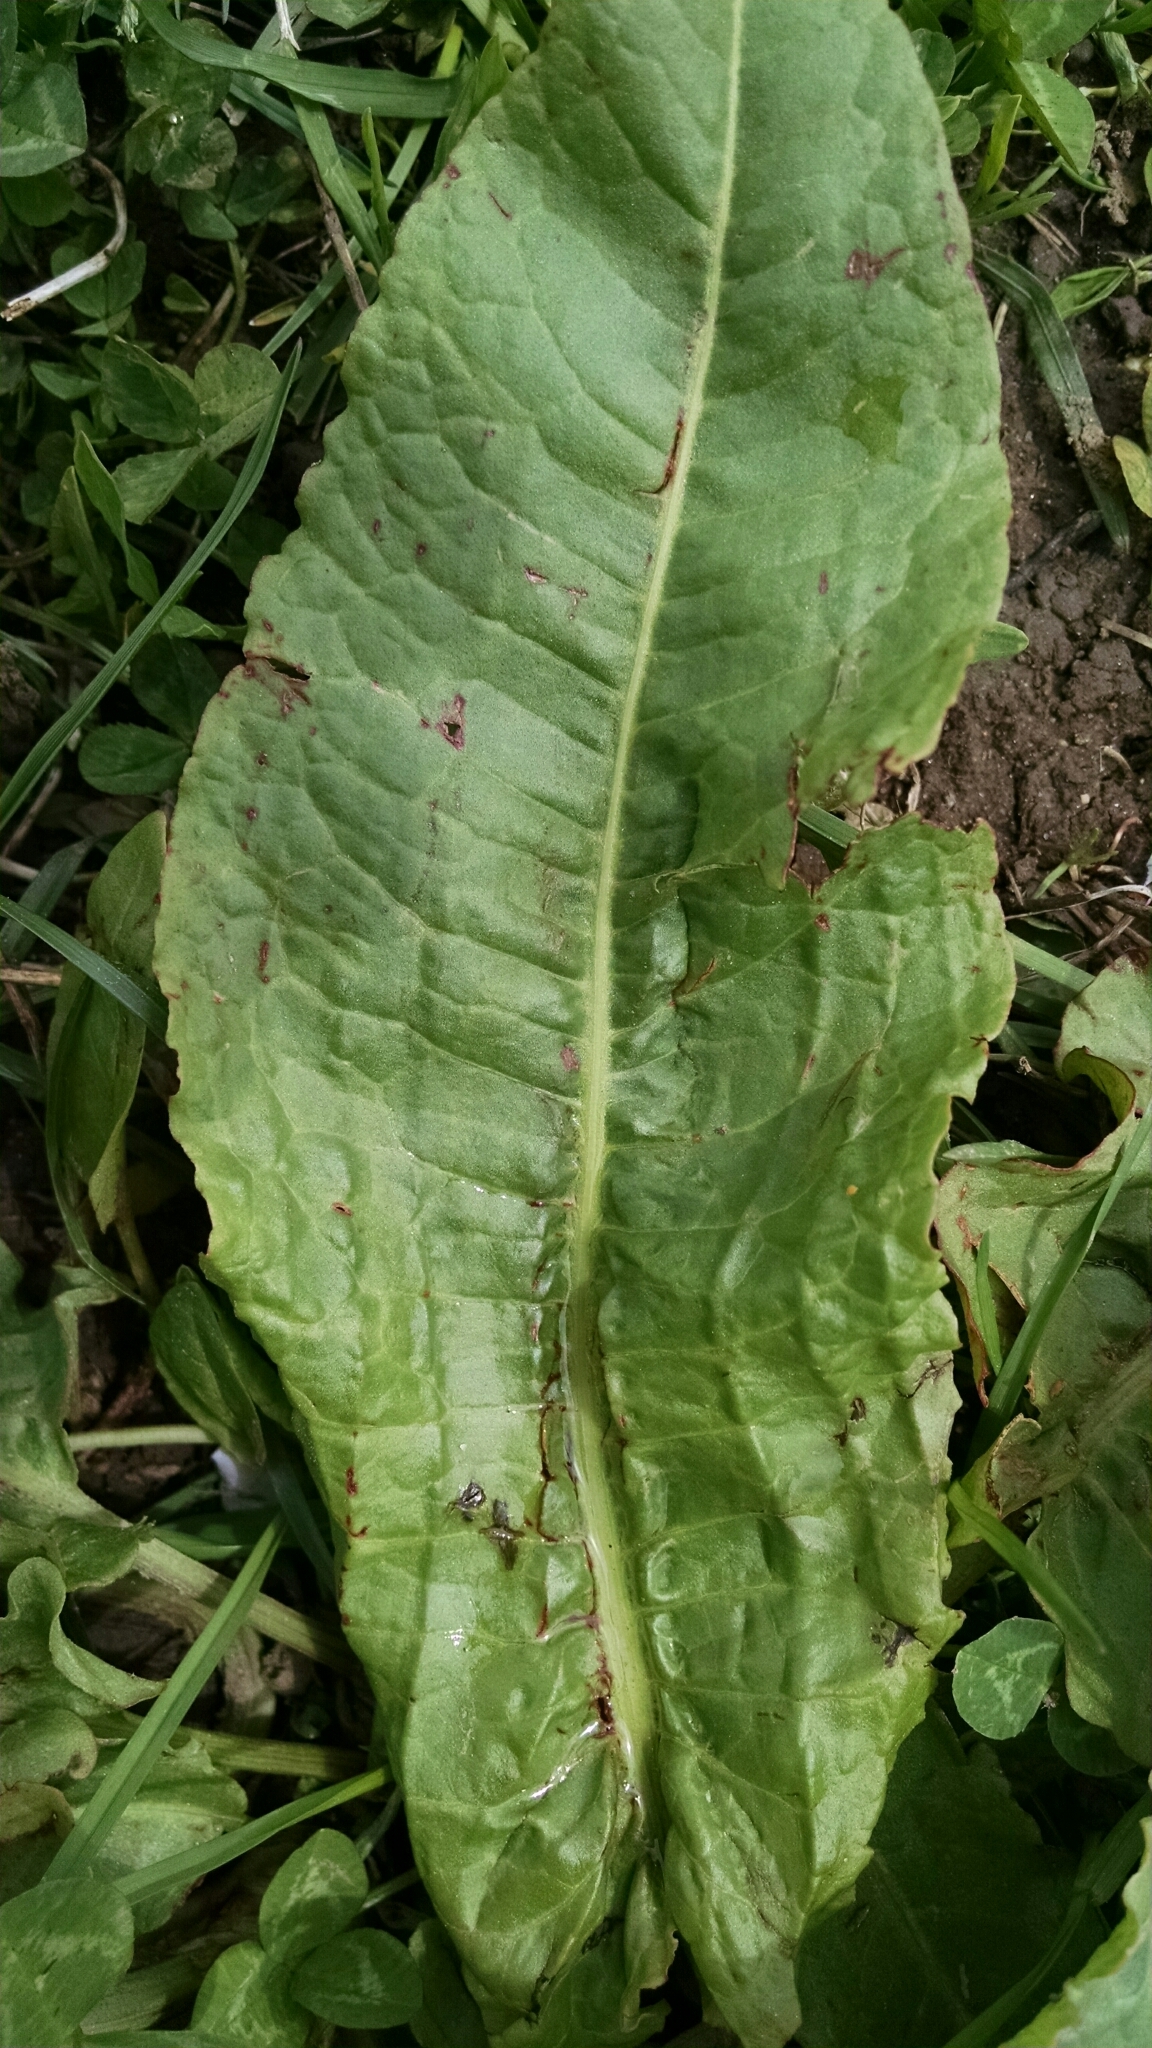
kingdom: Plantae
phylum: Tracheophyta
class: Magnoliopsida
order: Caryophyllales
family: Polygonaceae
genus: Rumex
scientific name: Rumex crispus
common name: Curled dock
